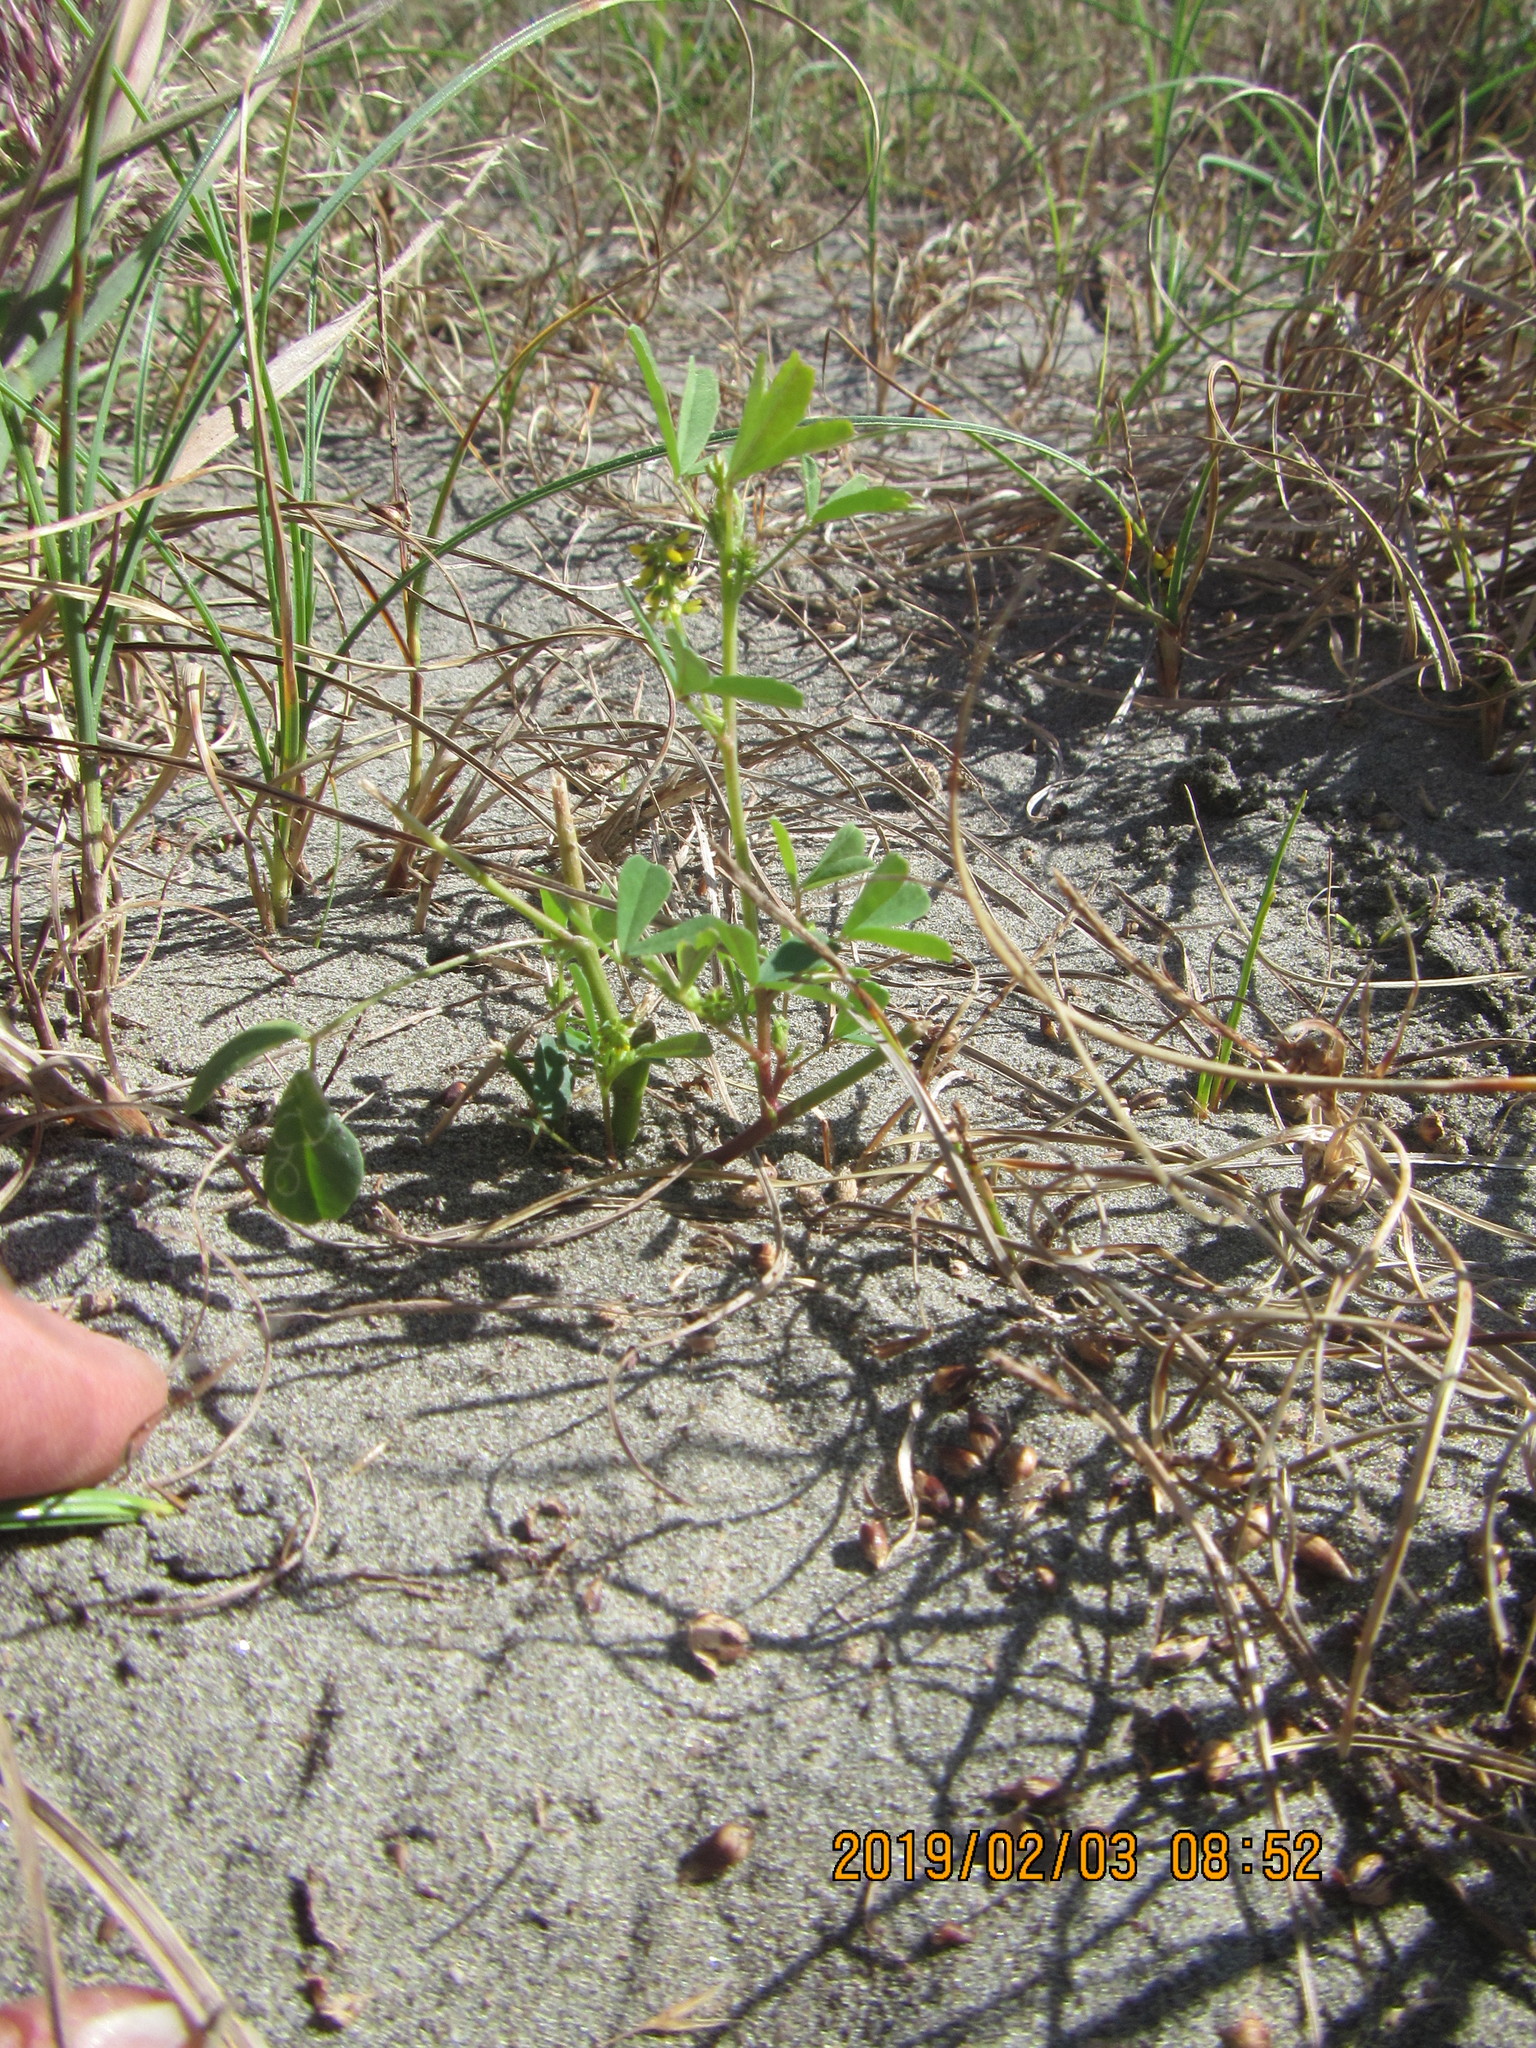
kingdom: Plantae
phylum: Tracheophyta
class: Magnoliopsida
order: Fabales
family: Fabaceae
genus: Melilotus
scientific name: Melilotus indicus
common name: Small melilot
